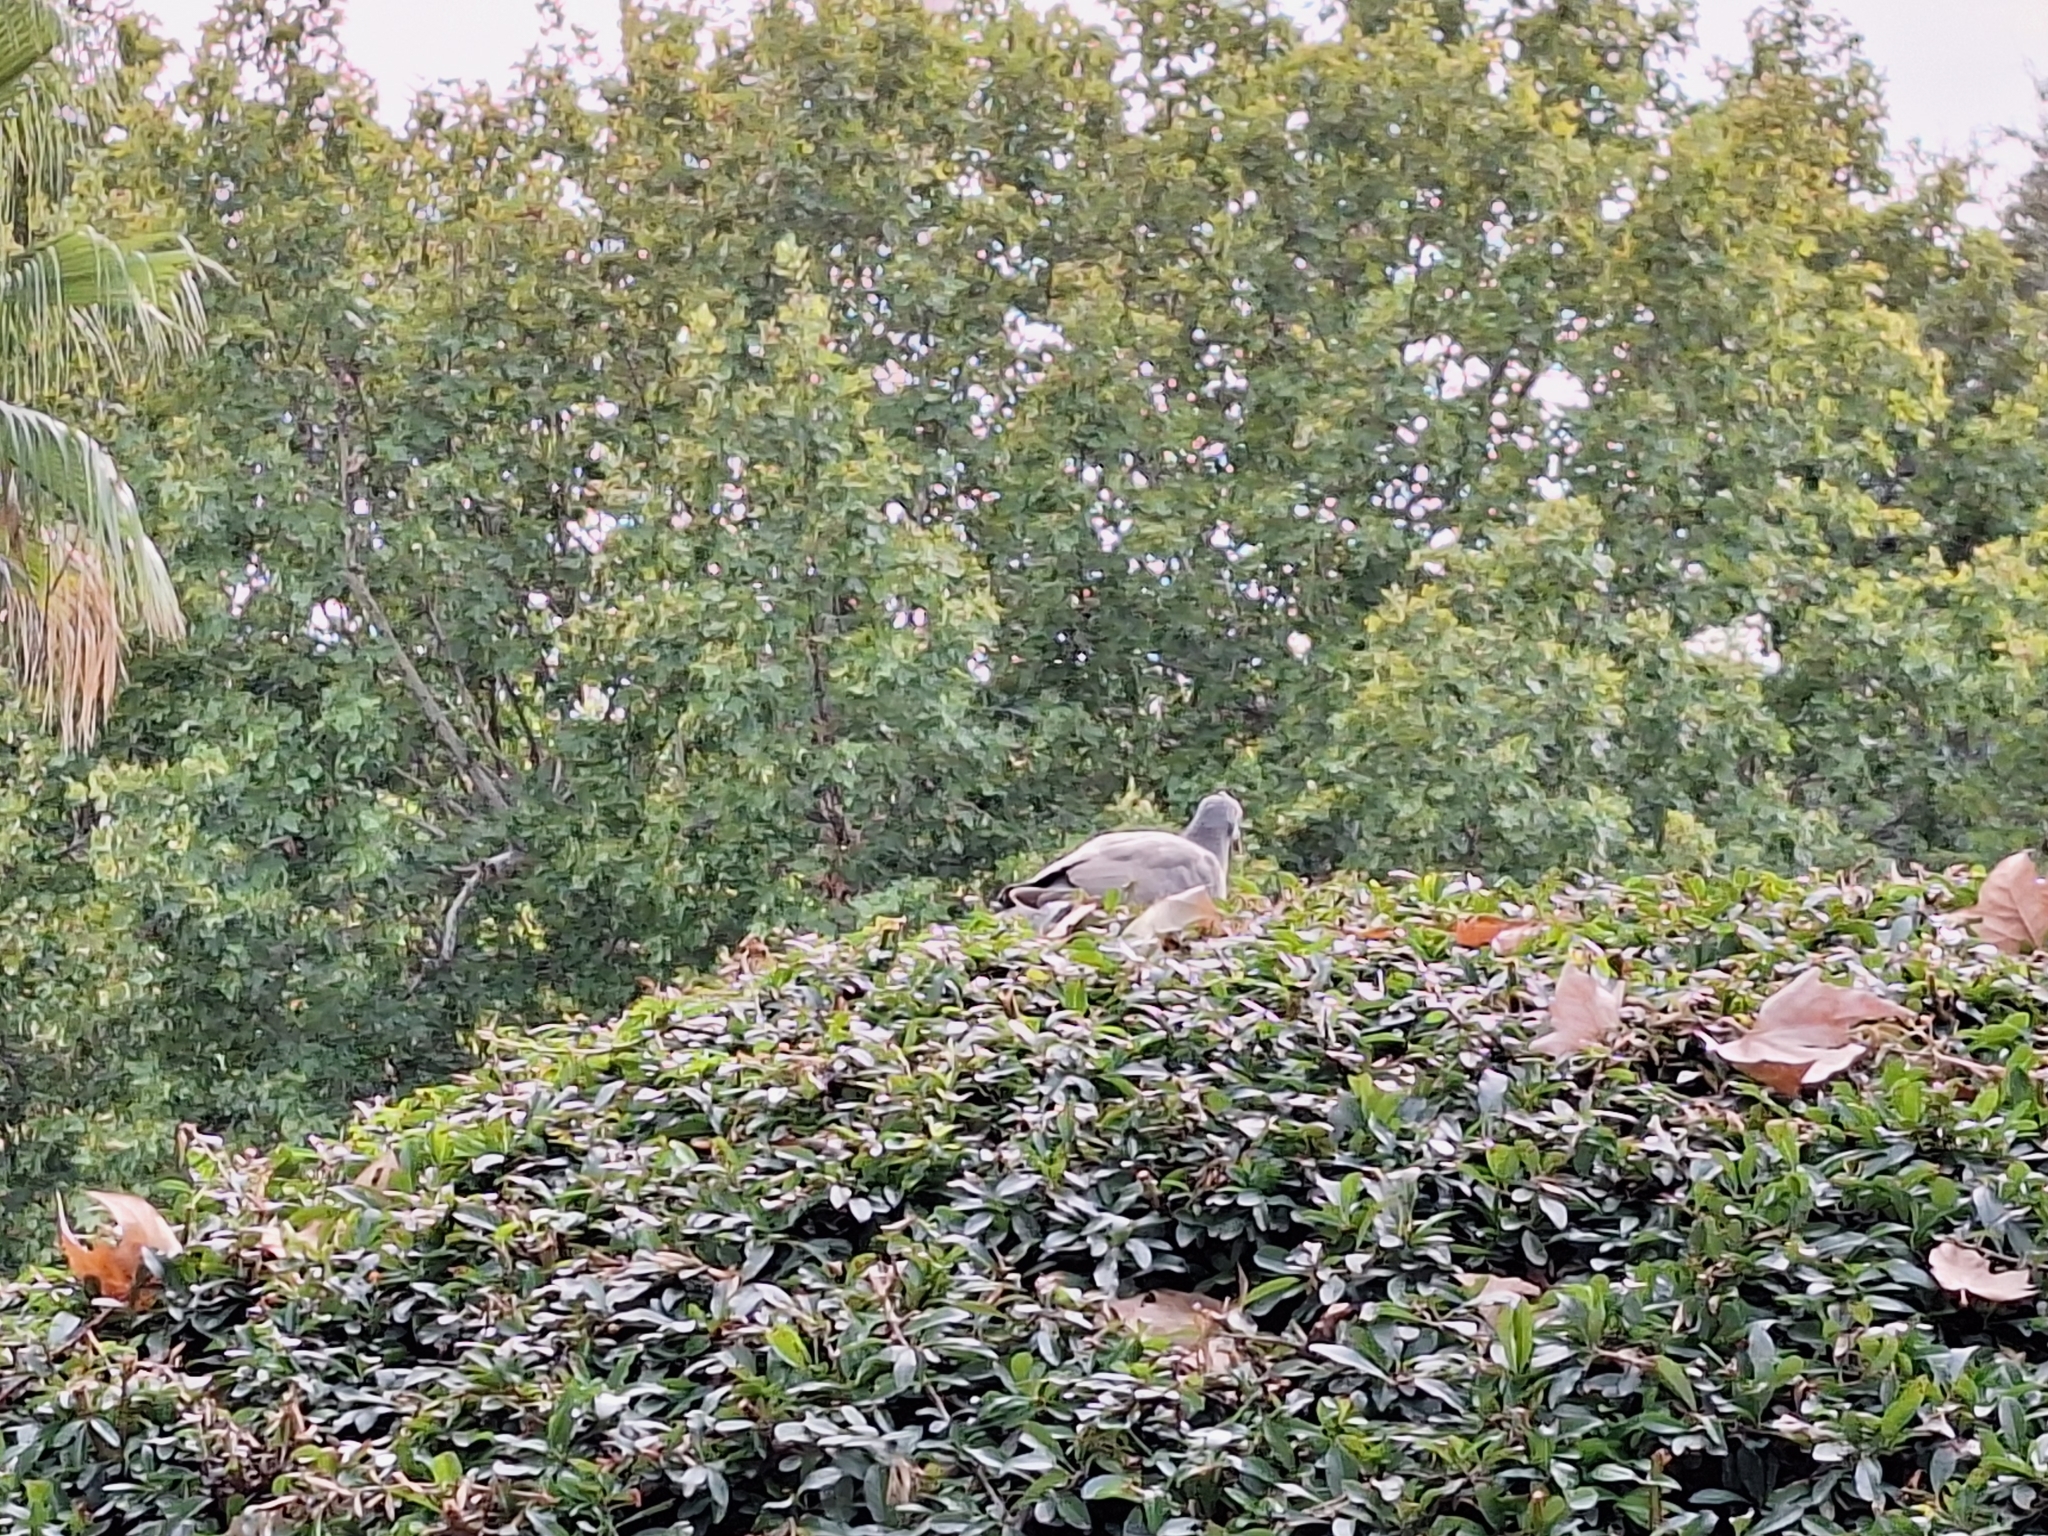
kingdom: Animalia
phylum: Chordata
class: Aves
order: Columbiformes
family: Columbidae
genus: Columba
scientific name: Columba palumbus
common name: Common wood pigeon
